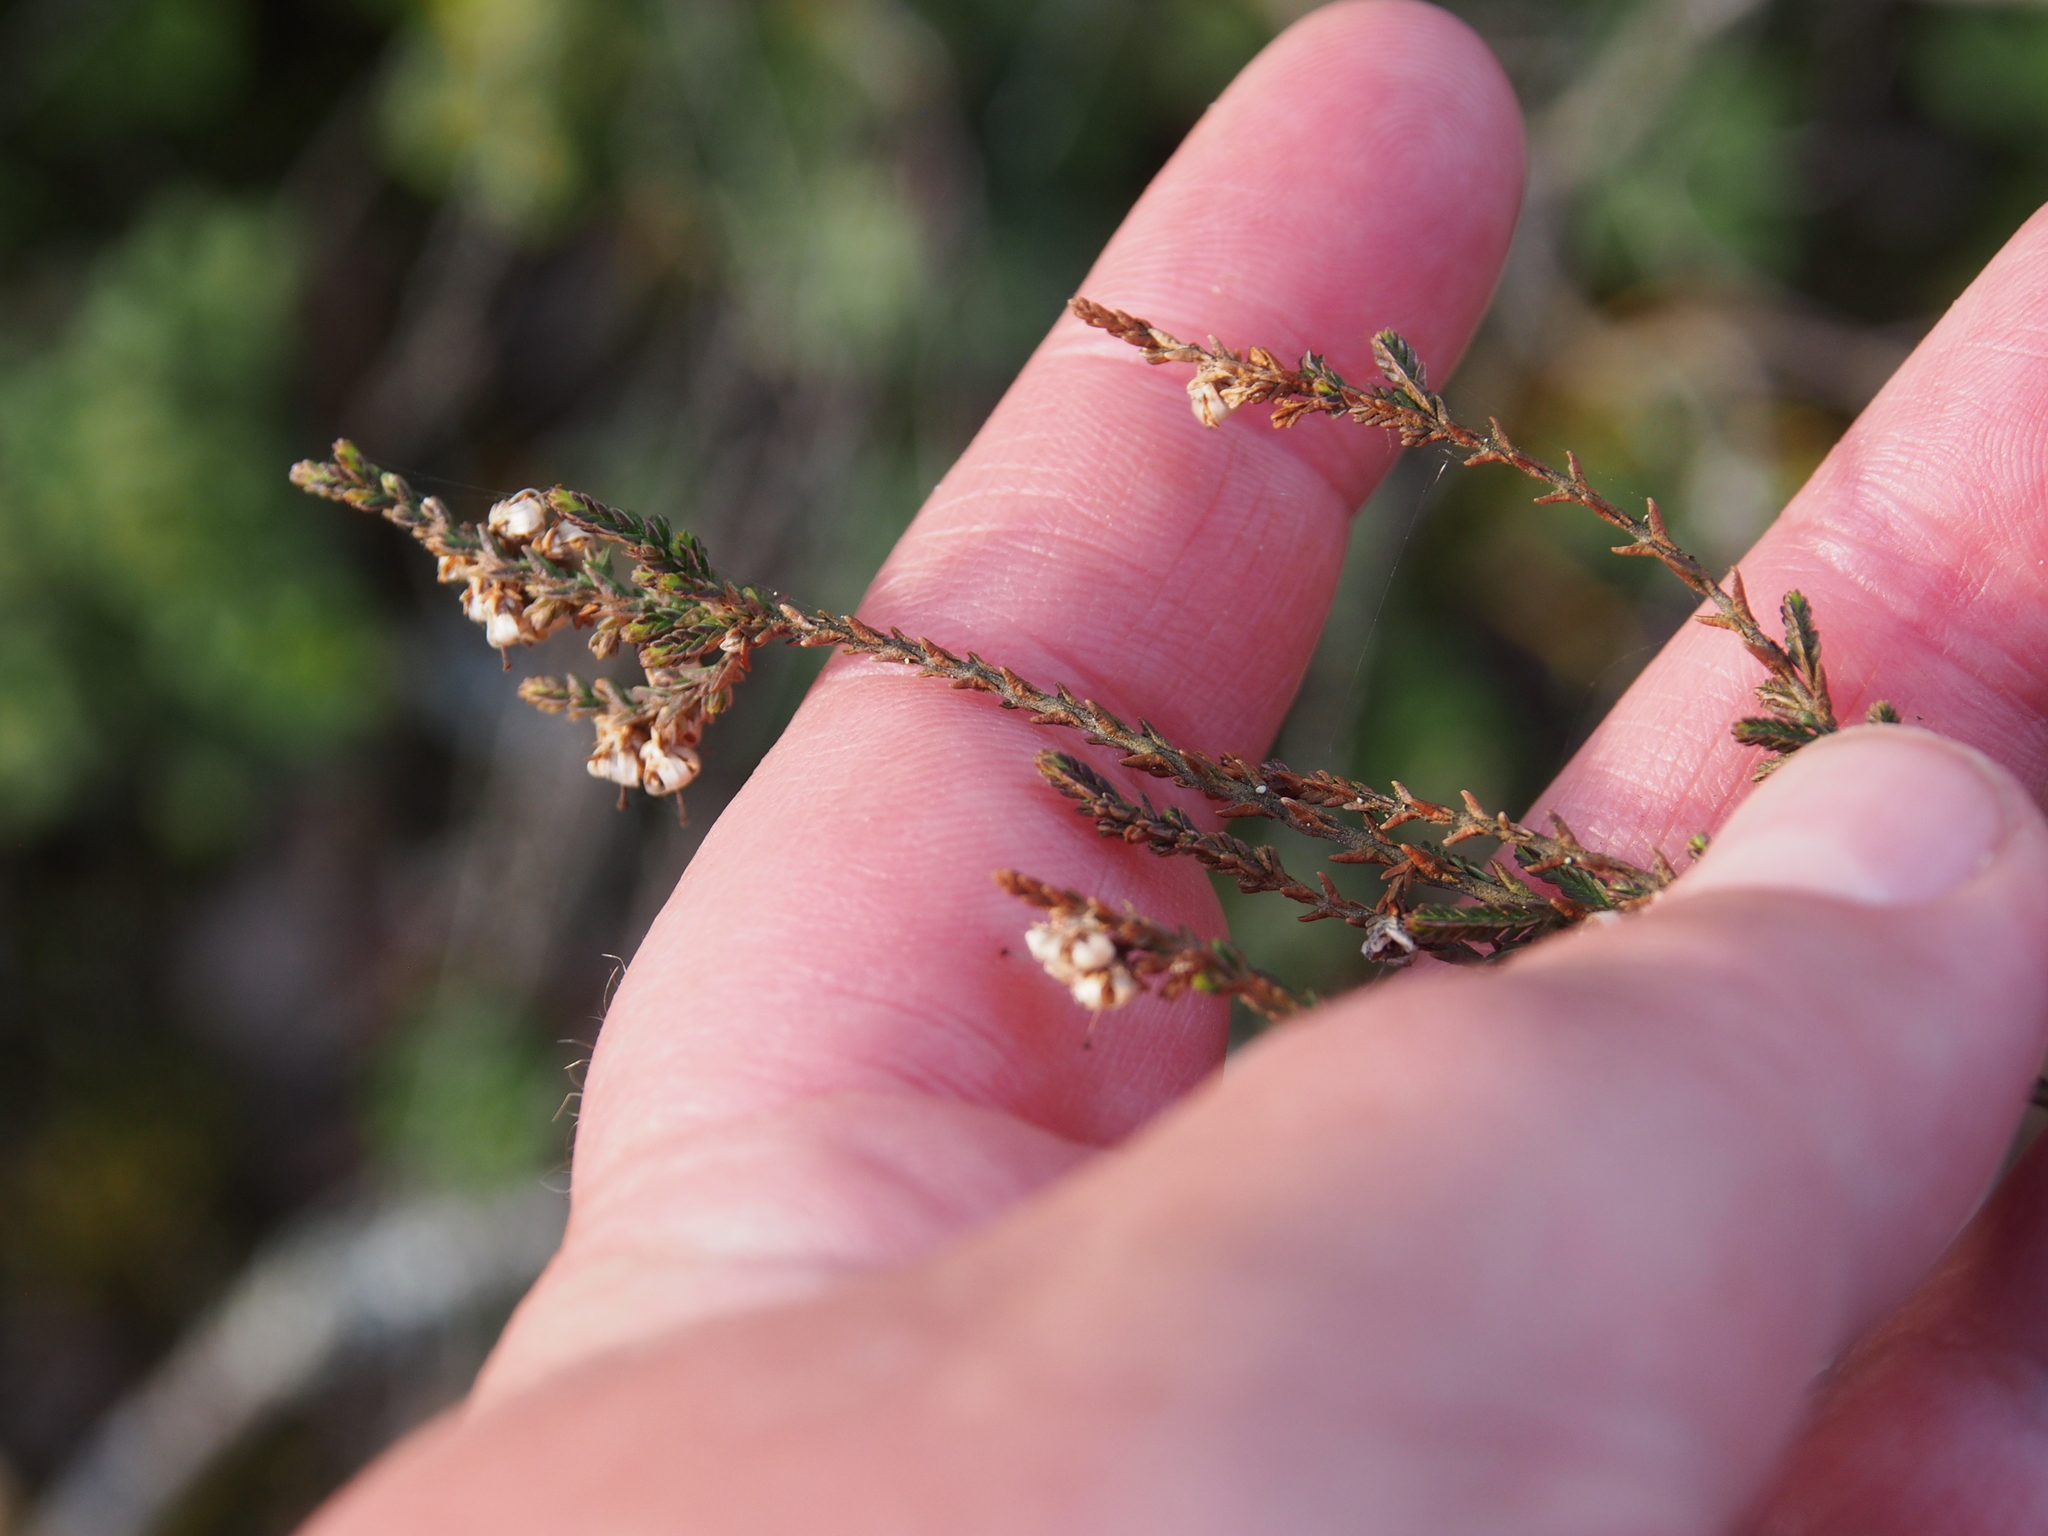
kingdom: Plantae
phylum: Tracheophyta
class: Magnoliopsida
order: Ericales
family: Ericaceae
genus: Calluna
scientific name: Calluna vulgaris
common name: Heather
